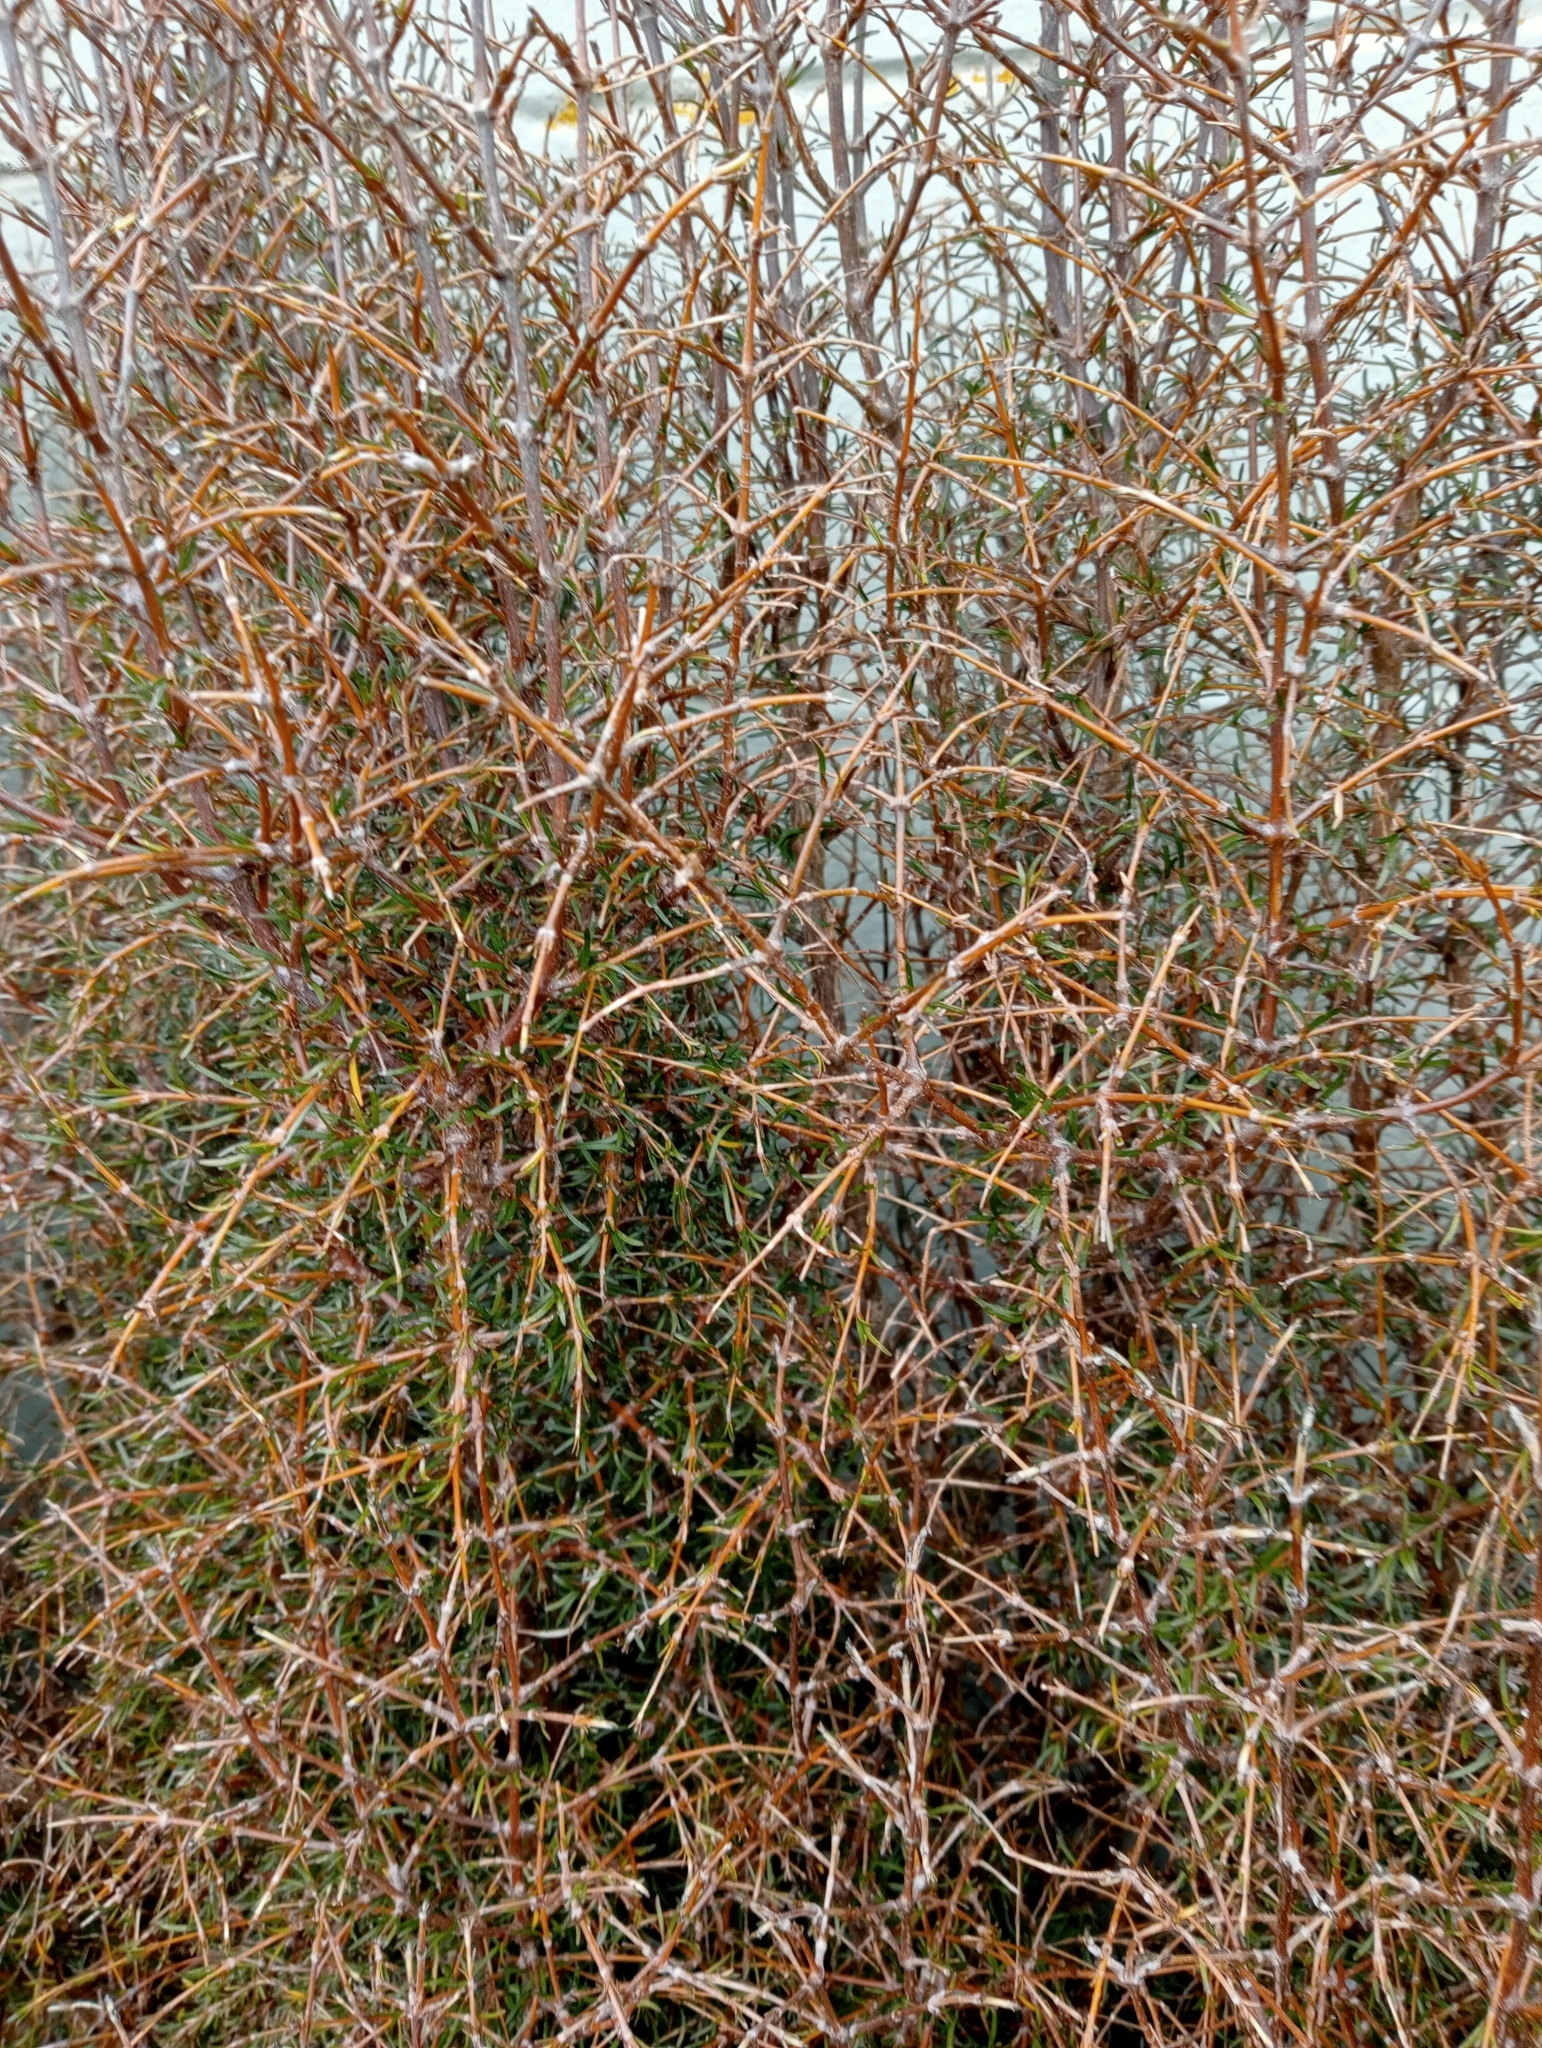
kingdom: Plantae
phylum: Tracheophyta
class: Magnoliopsida
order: Gentianales
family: Rubiaceae
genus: Coprosma
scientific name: Coprosma rugosa
